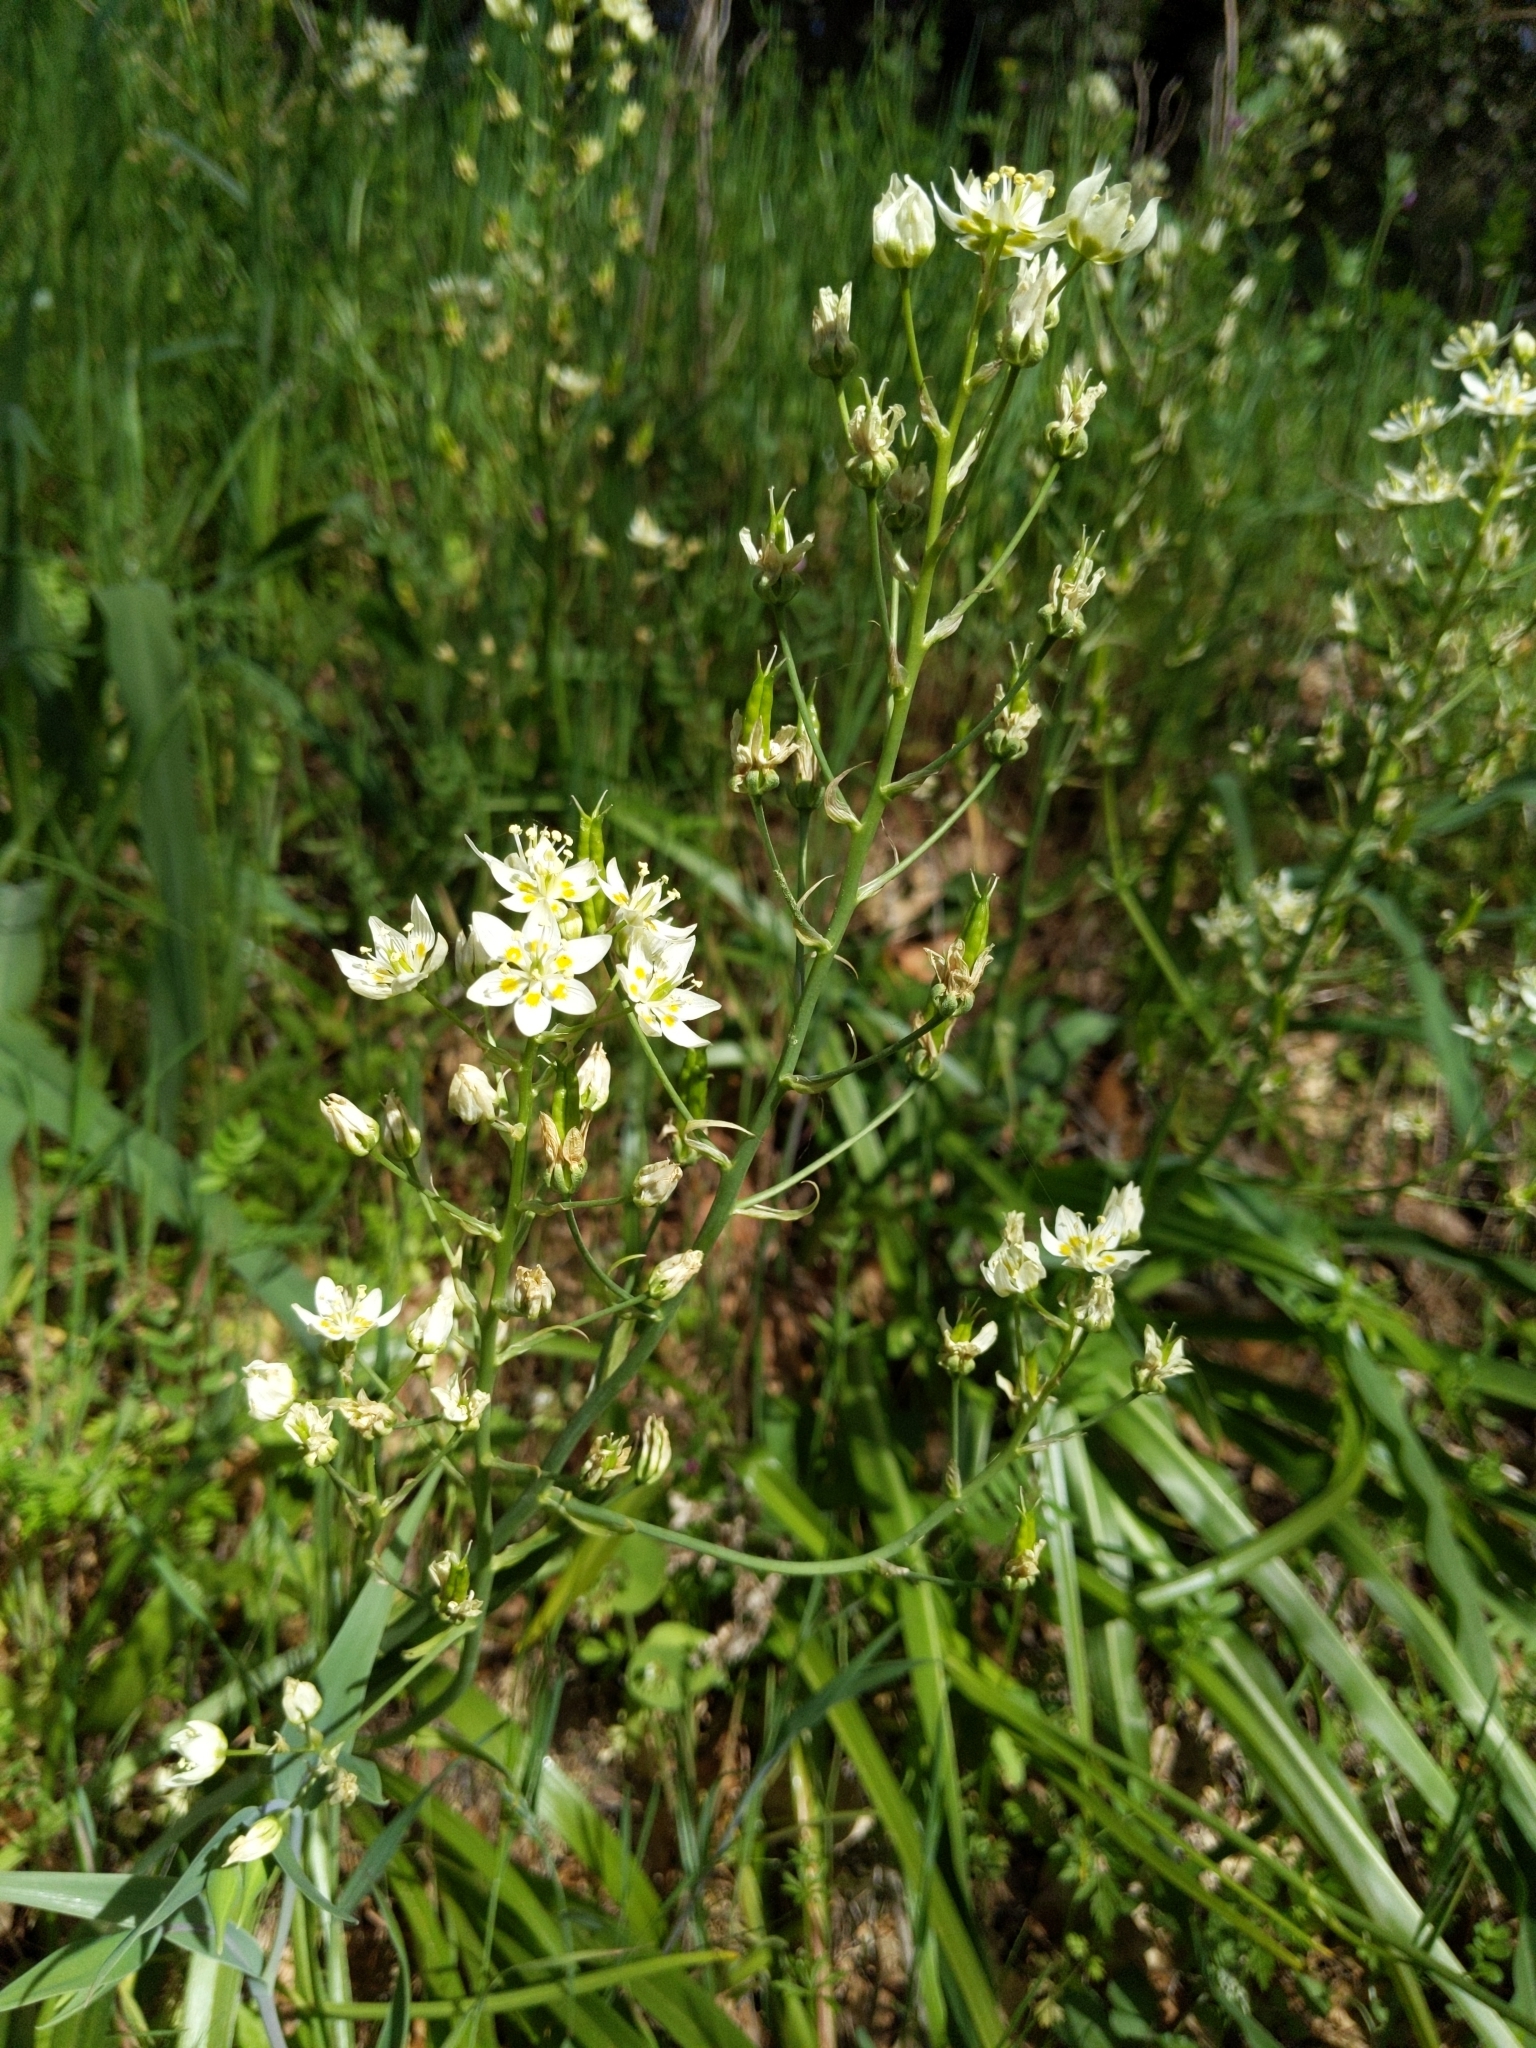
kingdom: Plantae
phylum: Tracheophyta
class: Liliopsida
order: Liliales
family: Melanthiaceae
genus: Toxicoscordion
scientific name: Toxicoscordion fremontii
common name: Fremont's death camas
